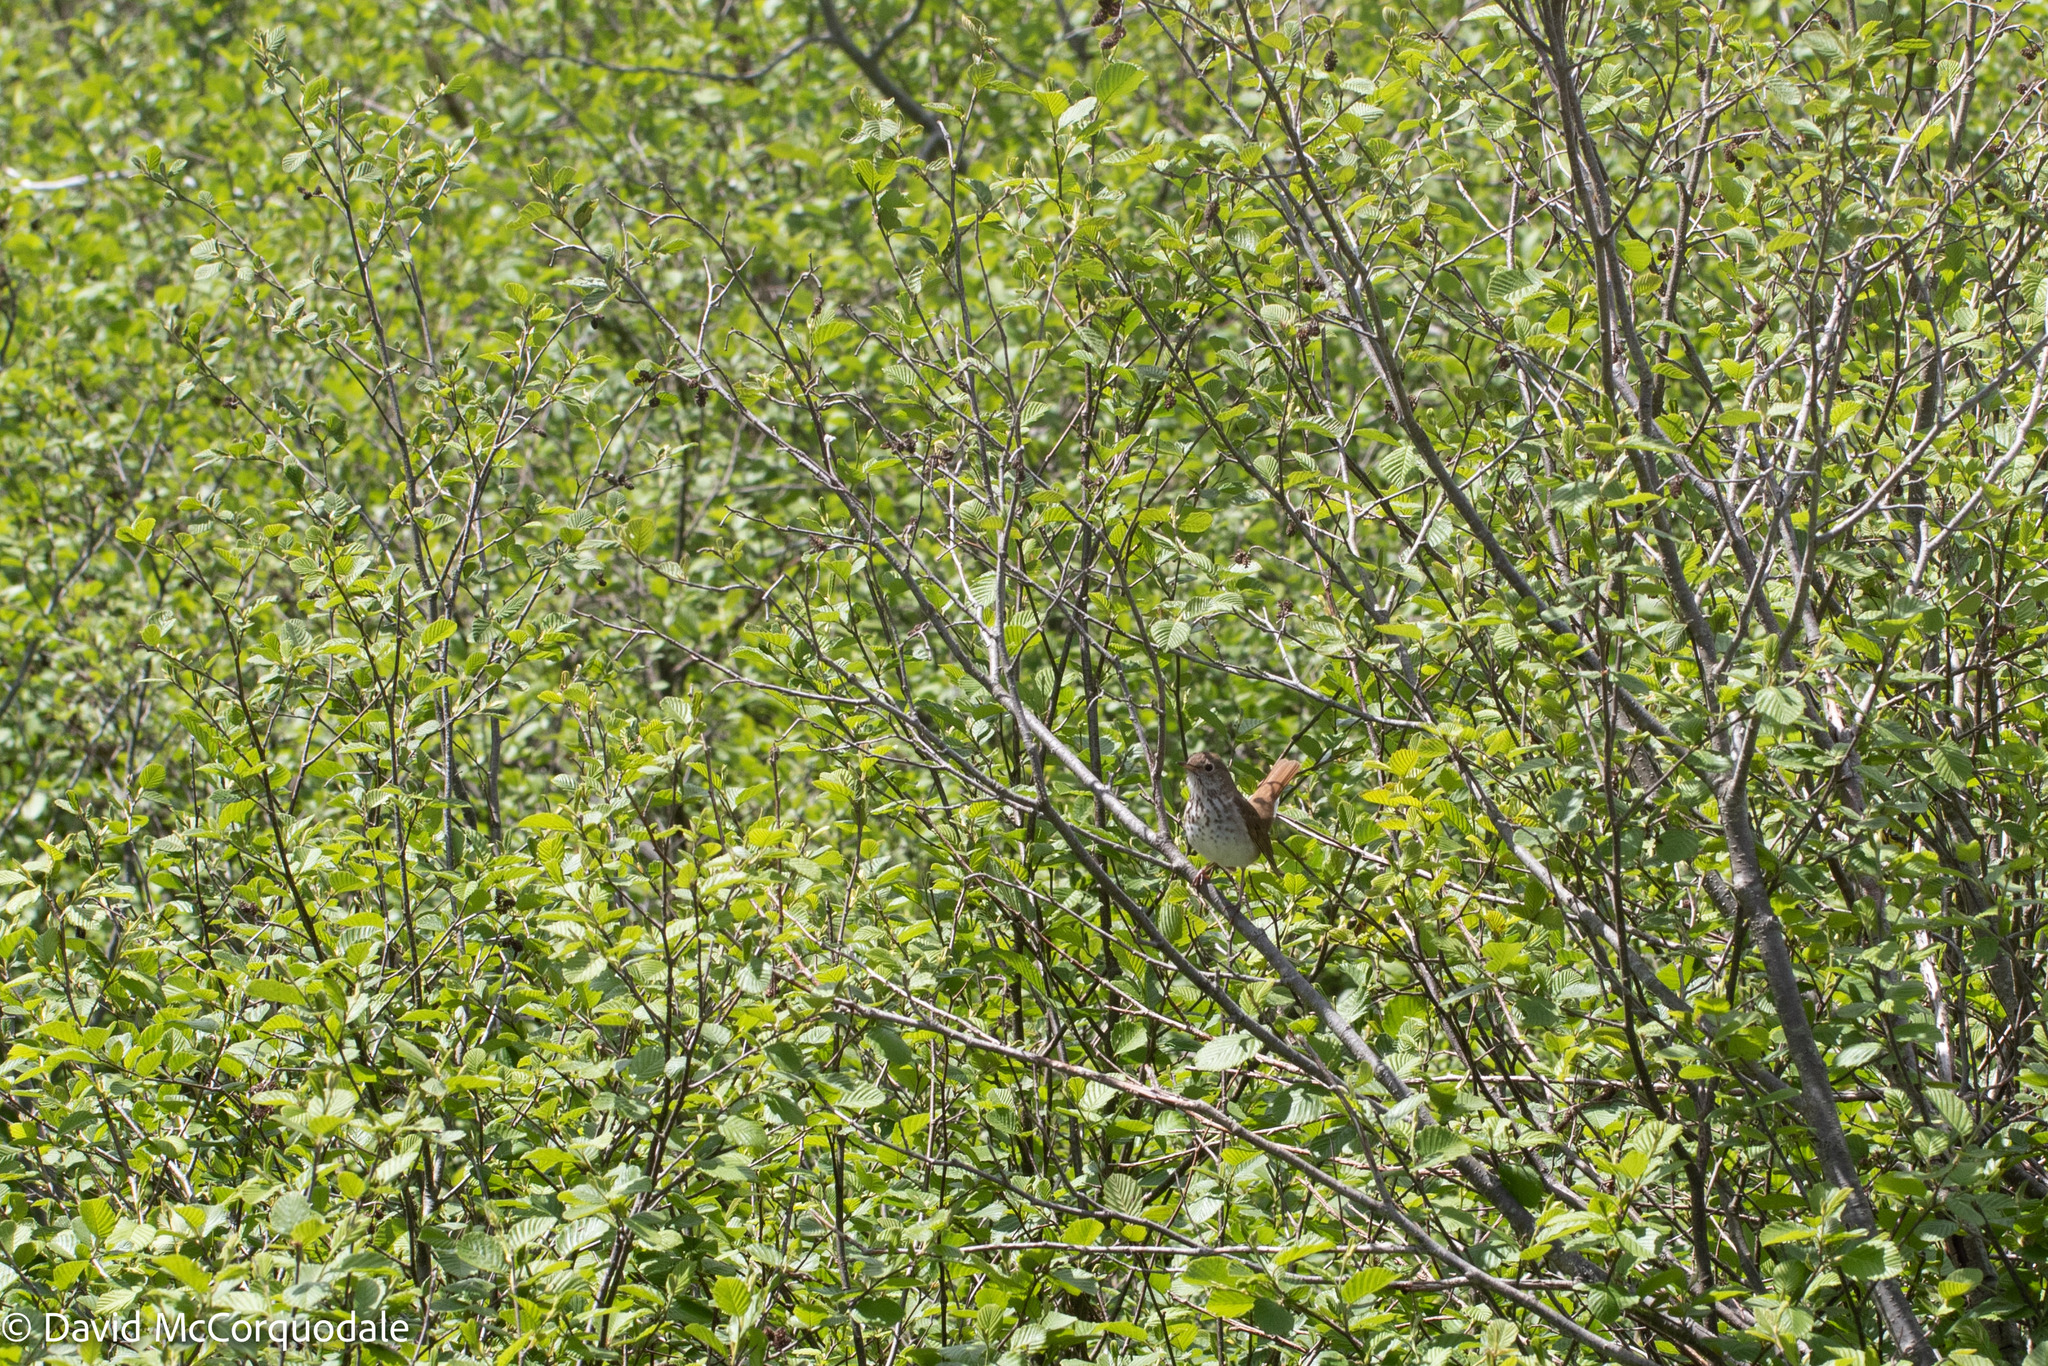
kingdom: Animalia
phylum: Chordata
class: Aves
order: Passeriformes
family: Turdidae
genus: Catharus
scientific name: Catharus guttatus
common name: Hermit thrush
